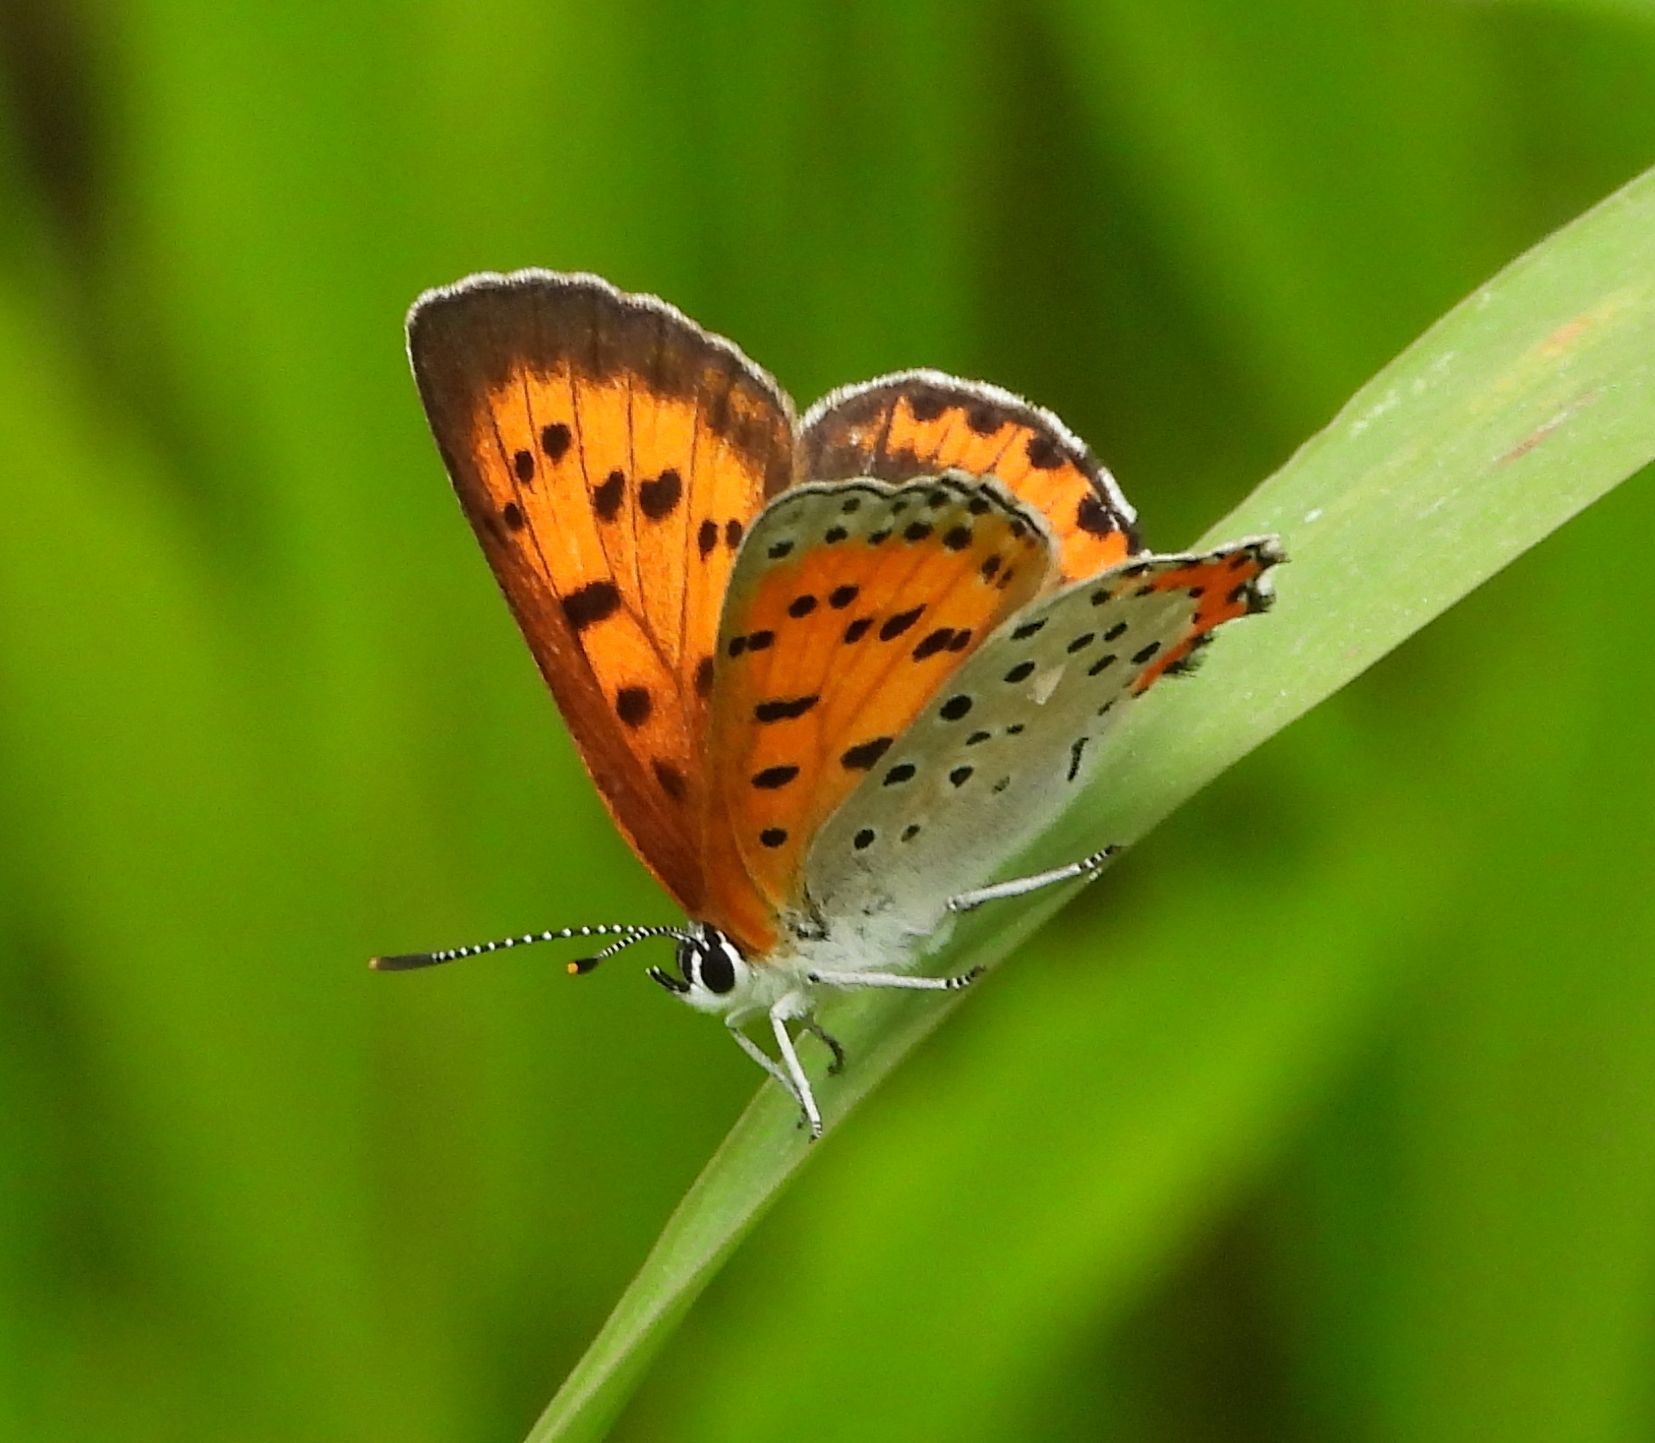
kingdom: Animalia
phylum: Arthropoda
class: Insecta
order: Lepidoptera
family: Lycaenidae
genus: Tharsalea
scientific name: Tharsalea hyllus
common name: Bronze copper
